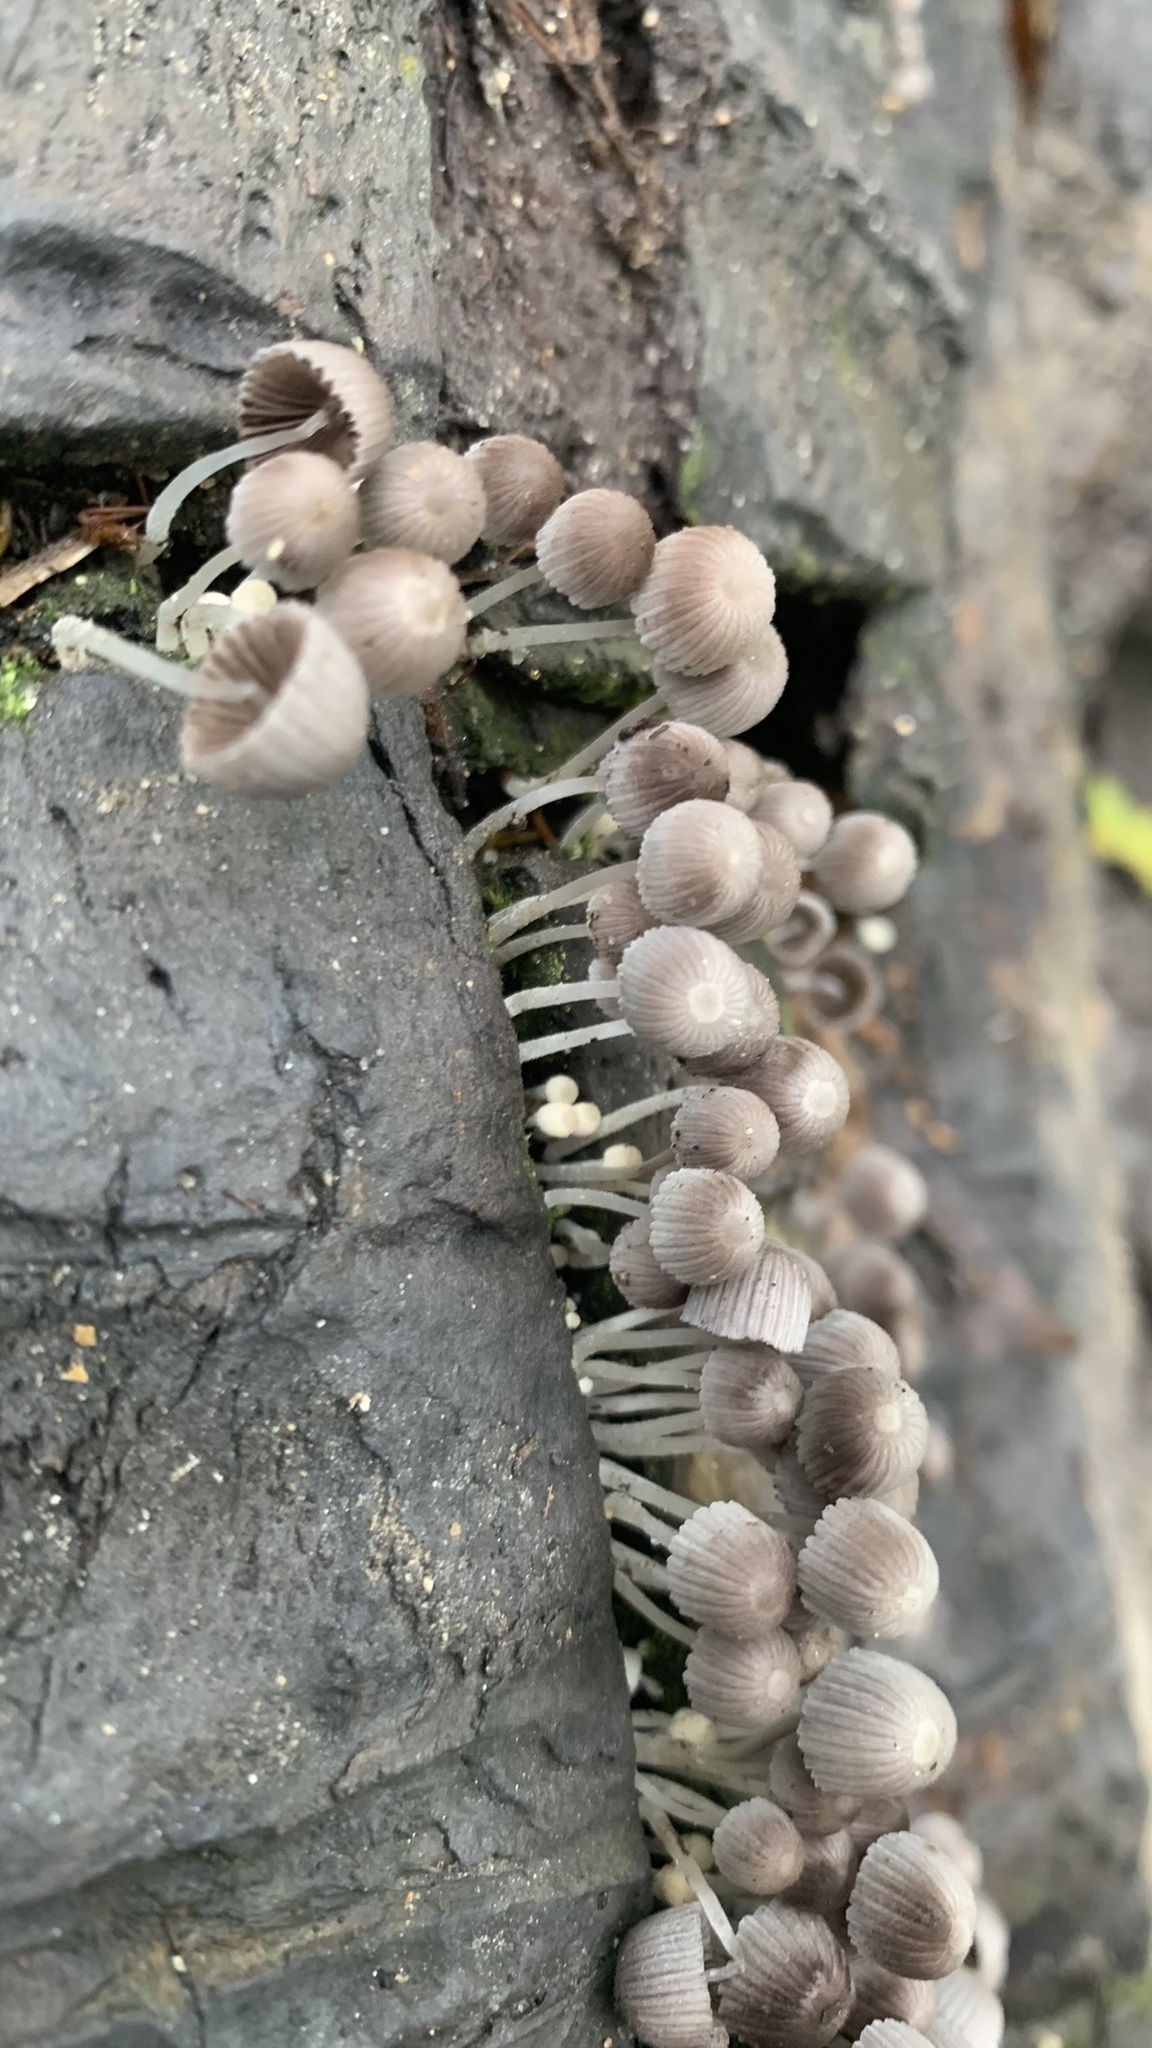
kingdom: Fungi
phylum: Basidiomycota
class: Agaricomycetes
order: Agaricales
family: Psathyrellaceae
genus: Coprinellus
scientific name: Coprinellus disseminatus
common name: Fairies' bonnets
